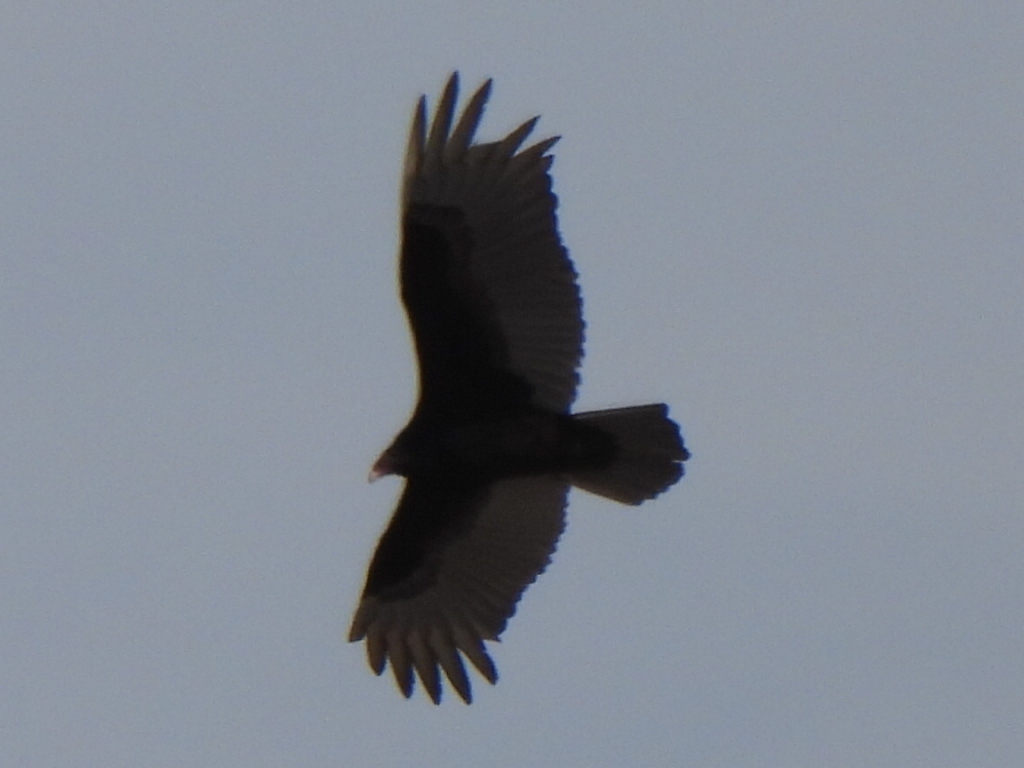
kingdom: Animalia
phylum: Chordata
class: Aves
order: Accipitriformes
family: Cathartidae
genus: Cathartes
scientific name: Cathartes aura
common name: Turkey vulture
